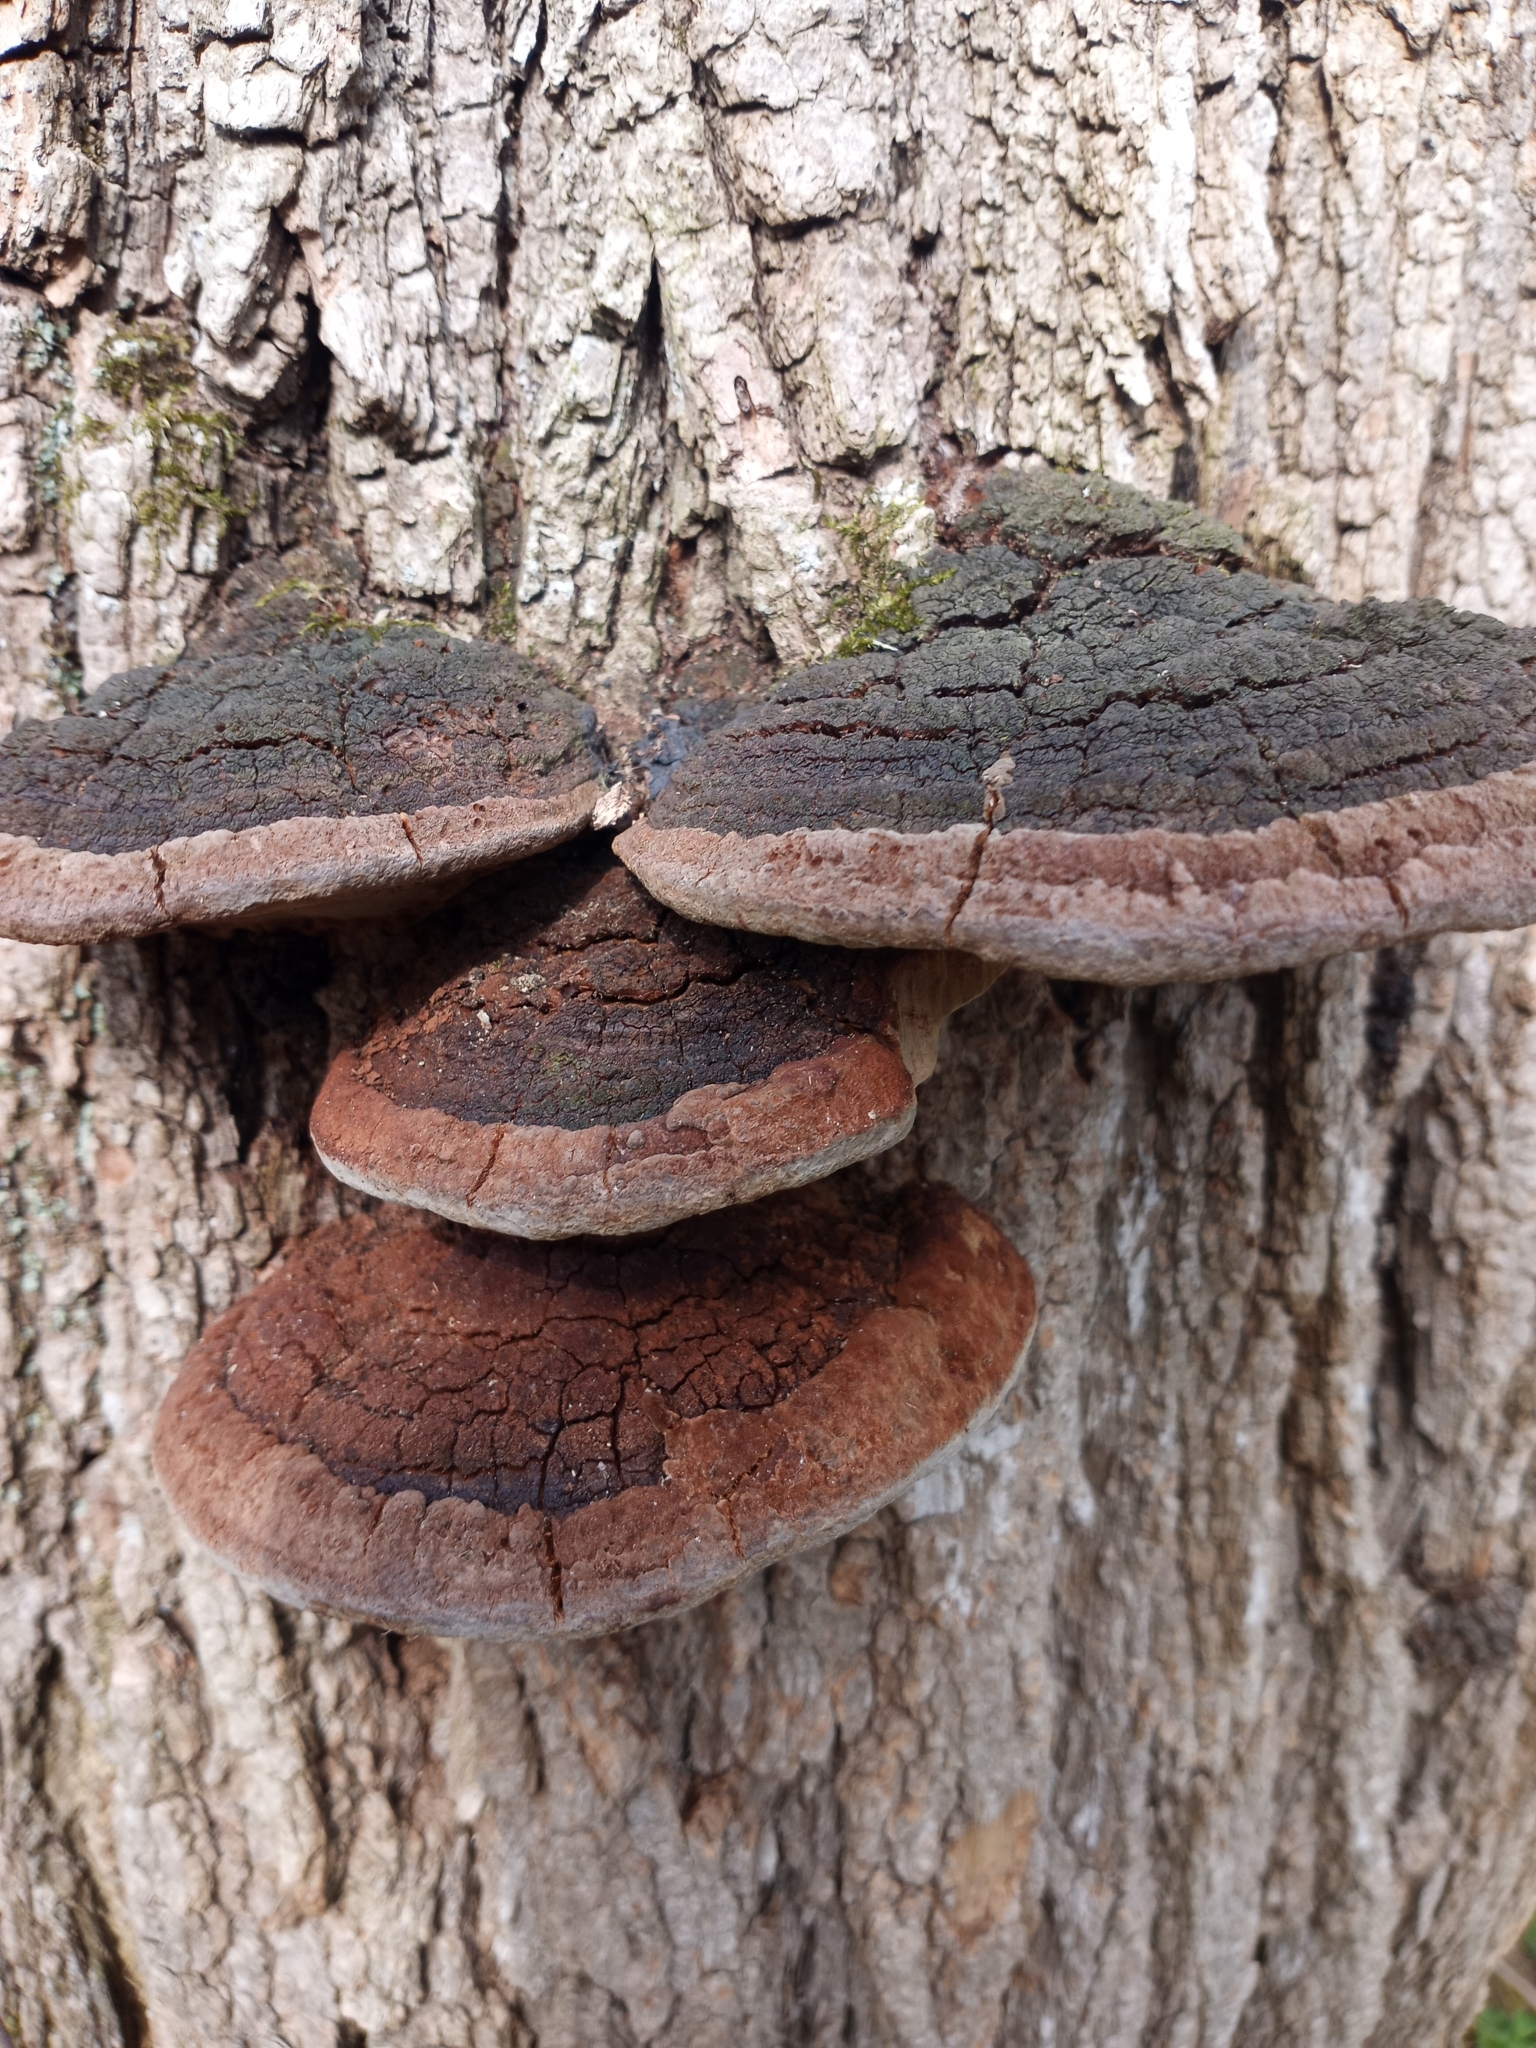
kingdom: Fungi
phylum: Basidiomycota
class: Agaricomycetes
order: Hymenochaetales
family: Hymenochaetaceae
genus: Phellinus
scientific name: Phellinus robiniae
